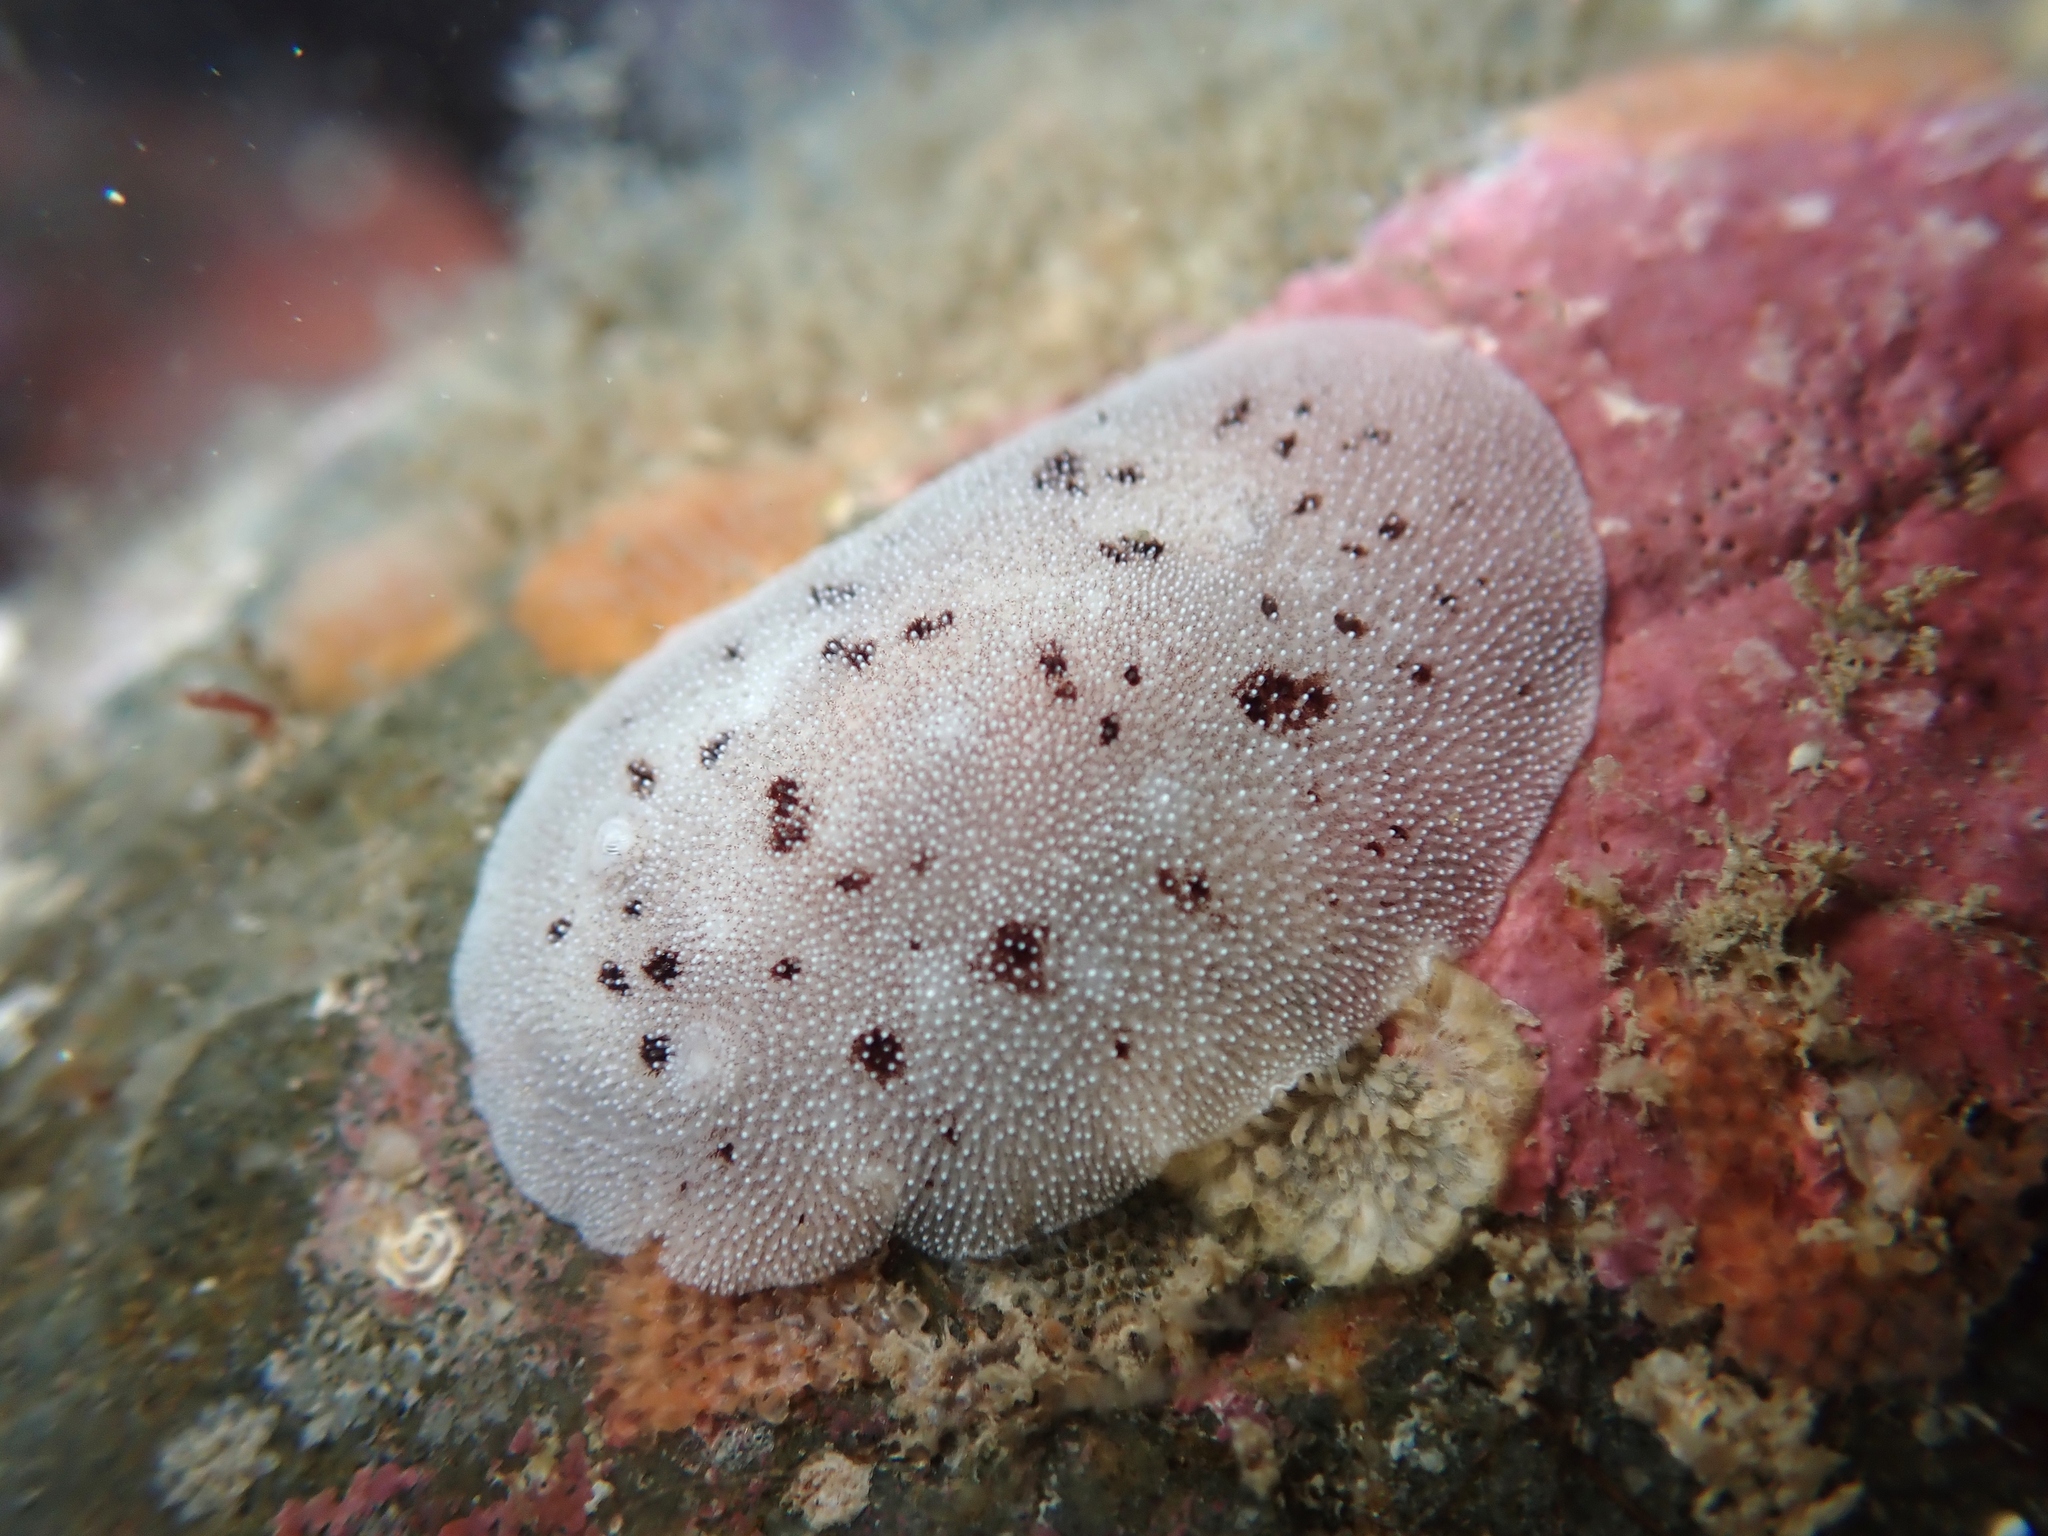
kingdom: Animalia
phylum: Mollusca
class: Gastropoda
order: Nudibranchia
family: Discodorididae
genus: Alloiodoris
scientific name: Alloiodoris lanuginata
